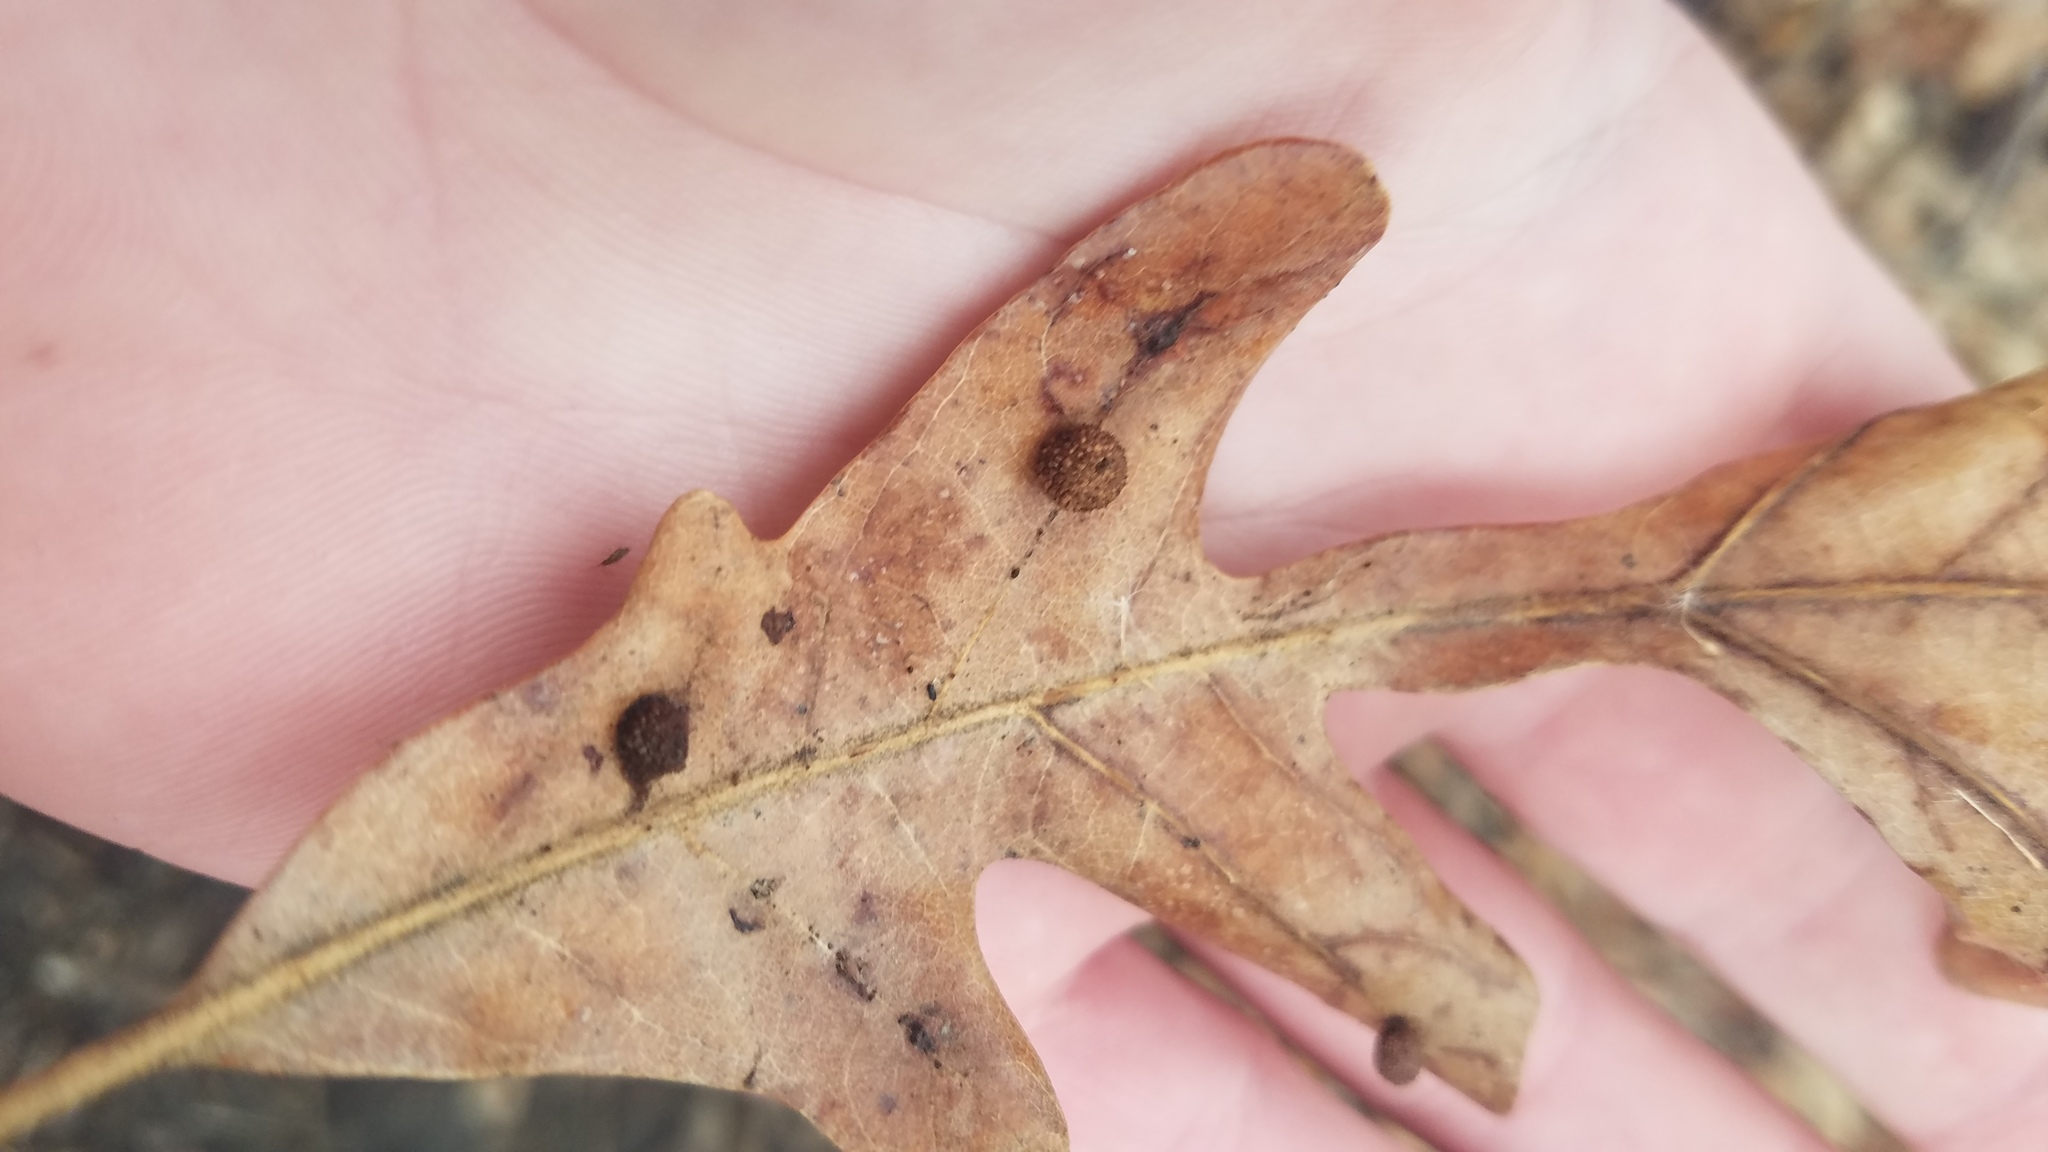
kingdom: Animalia
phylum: Arthropoda
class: Insecta
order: Hymenoptera
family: Cynipidae
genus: Acraspis
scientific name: Acraspis
